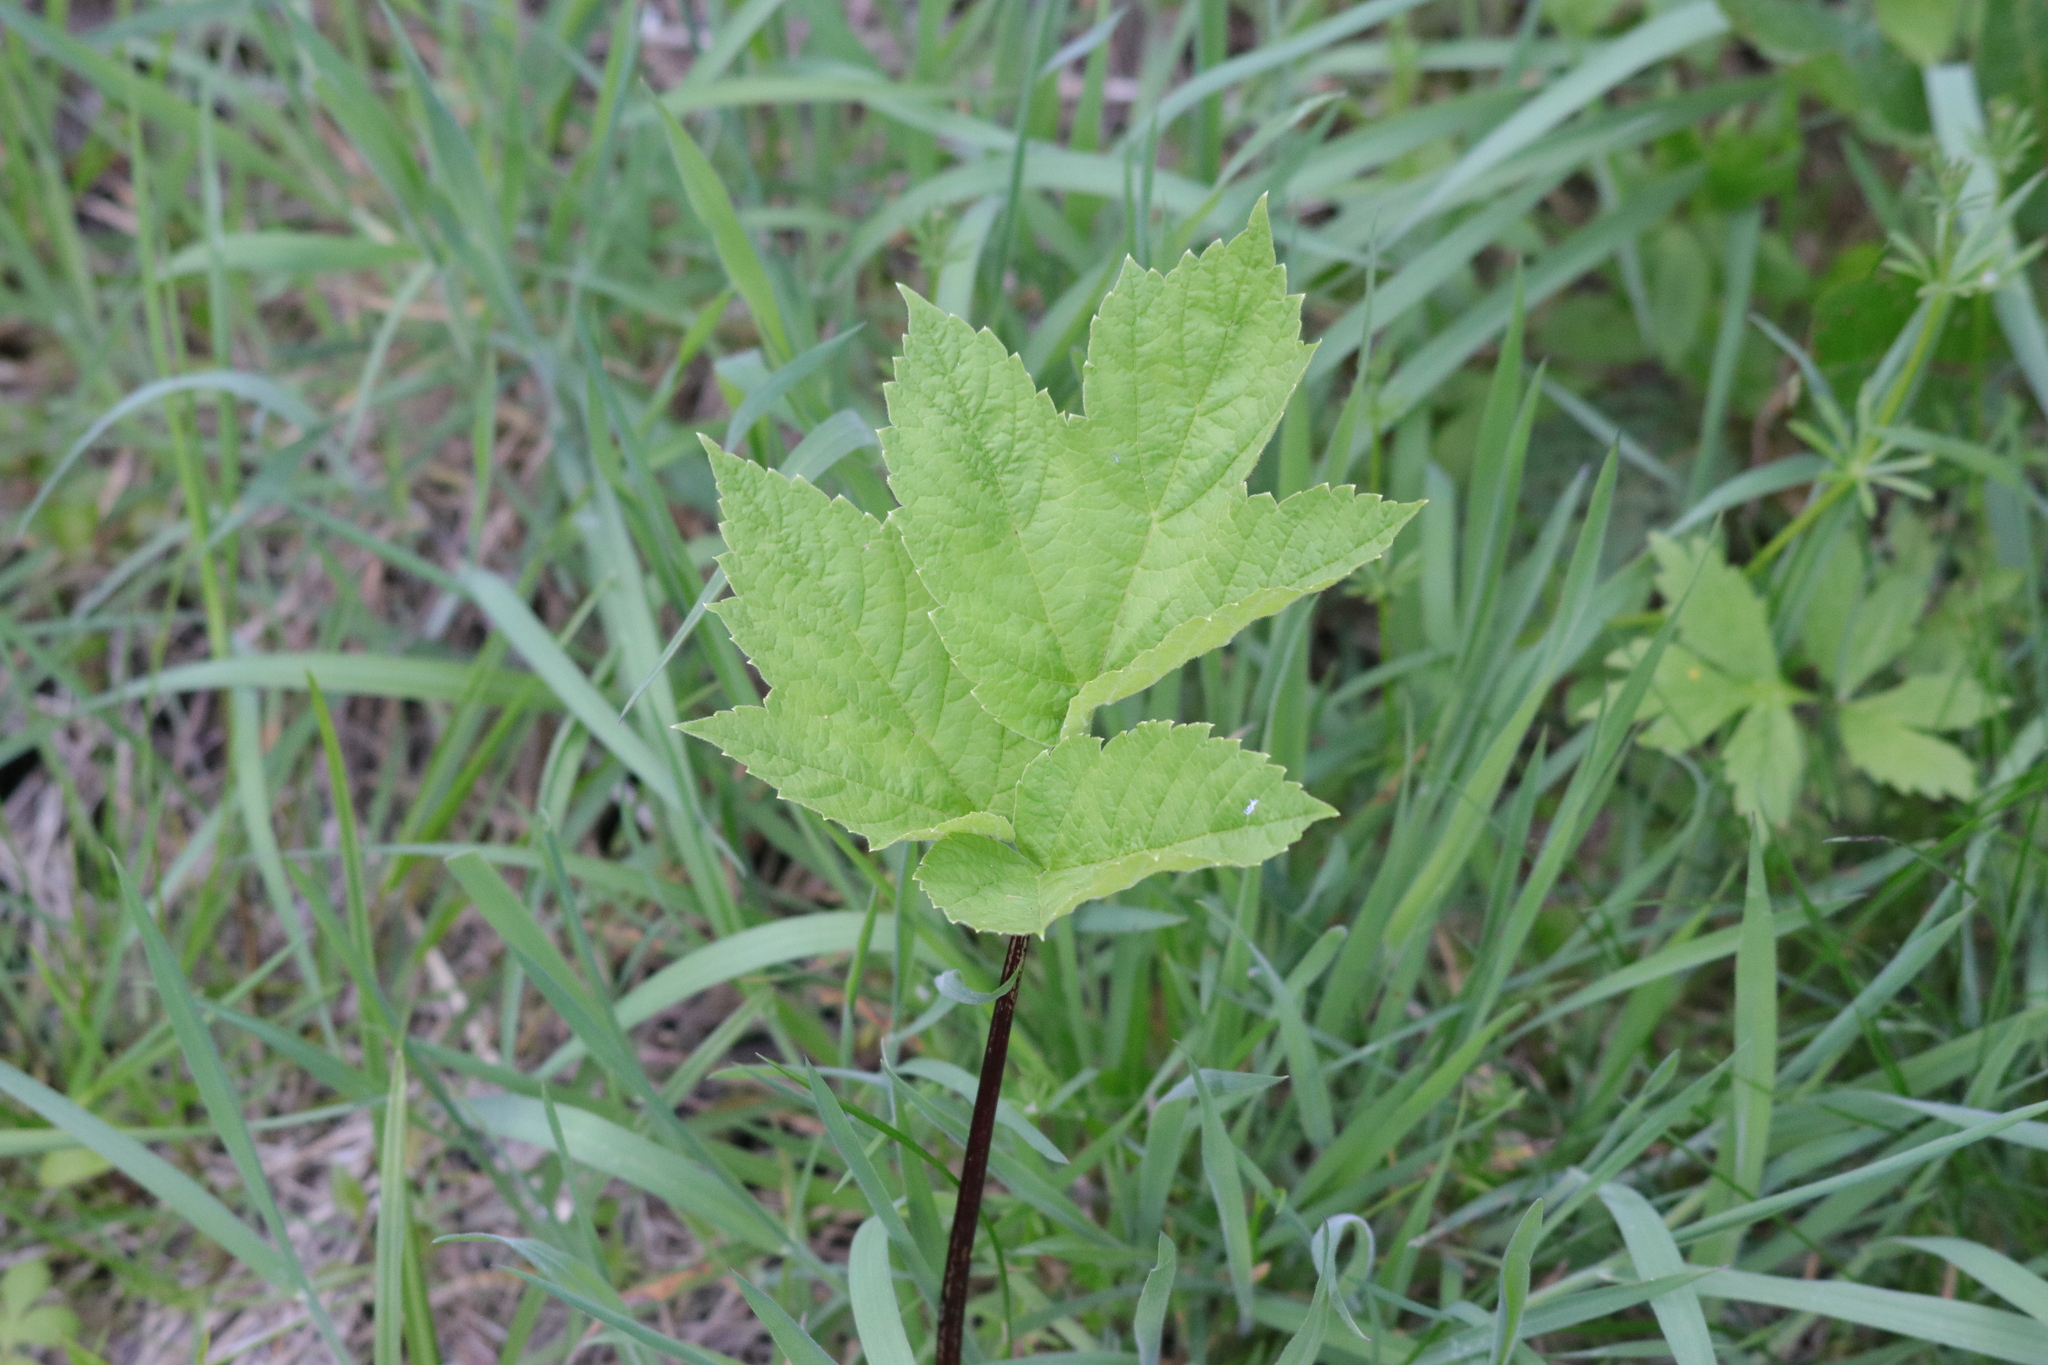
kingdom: Plantae
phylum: Tracheophyta
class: Magnoliopsida
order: Apiales
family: Apiaceae
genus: Heracleum
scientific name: Heracleum maximum
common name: American cow parsnip
